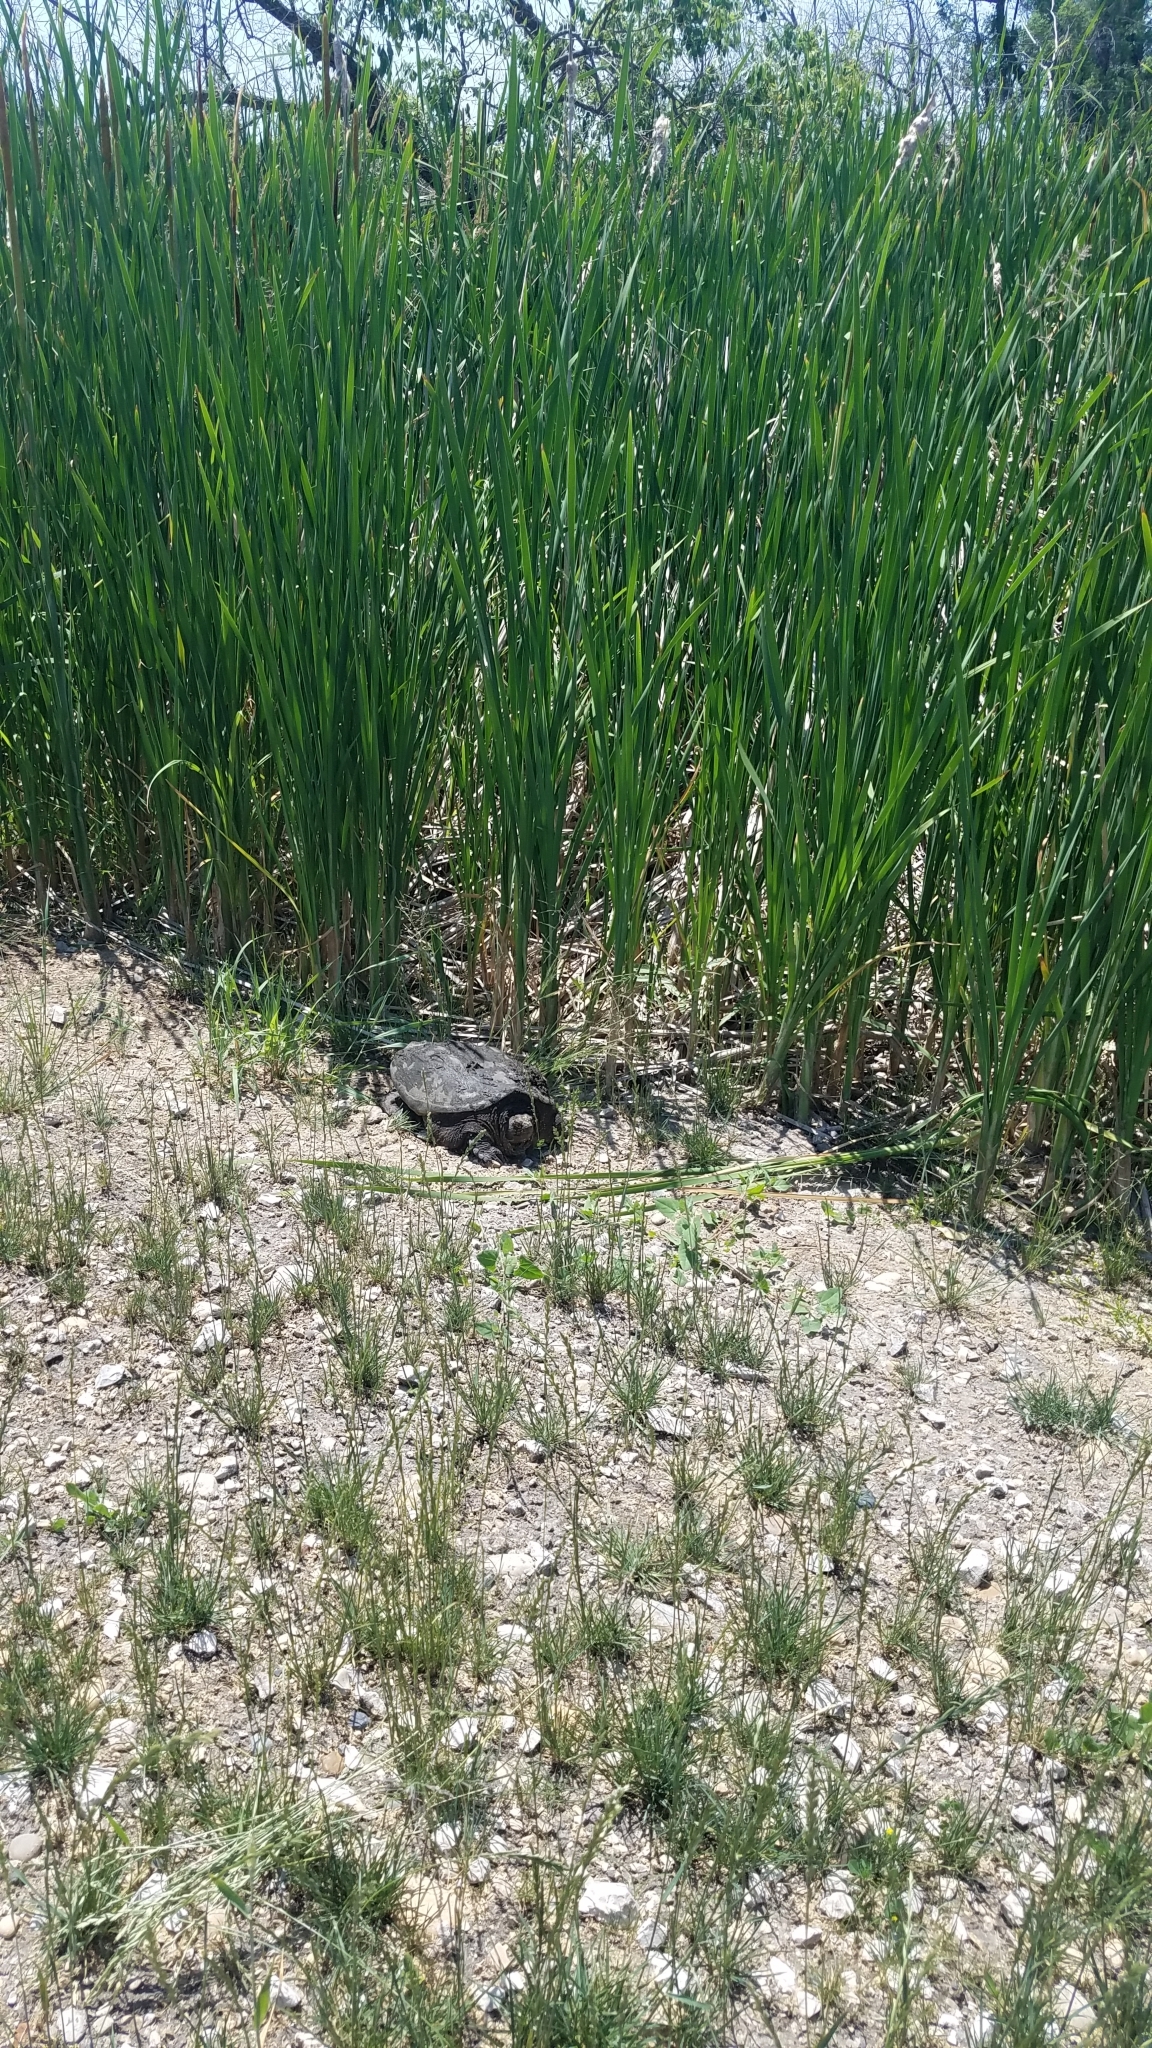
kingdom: Animalia
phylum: Chordata
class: Testudines
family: Chelydridae
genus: Chelydra
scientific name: Chelydra serpentina
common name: Common snapping turtle
